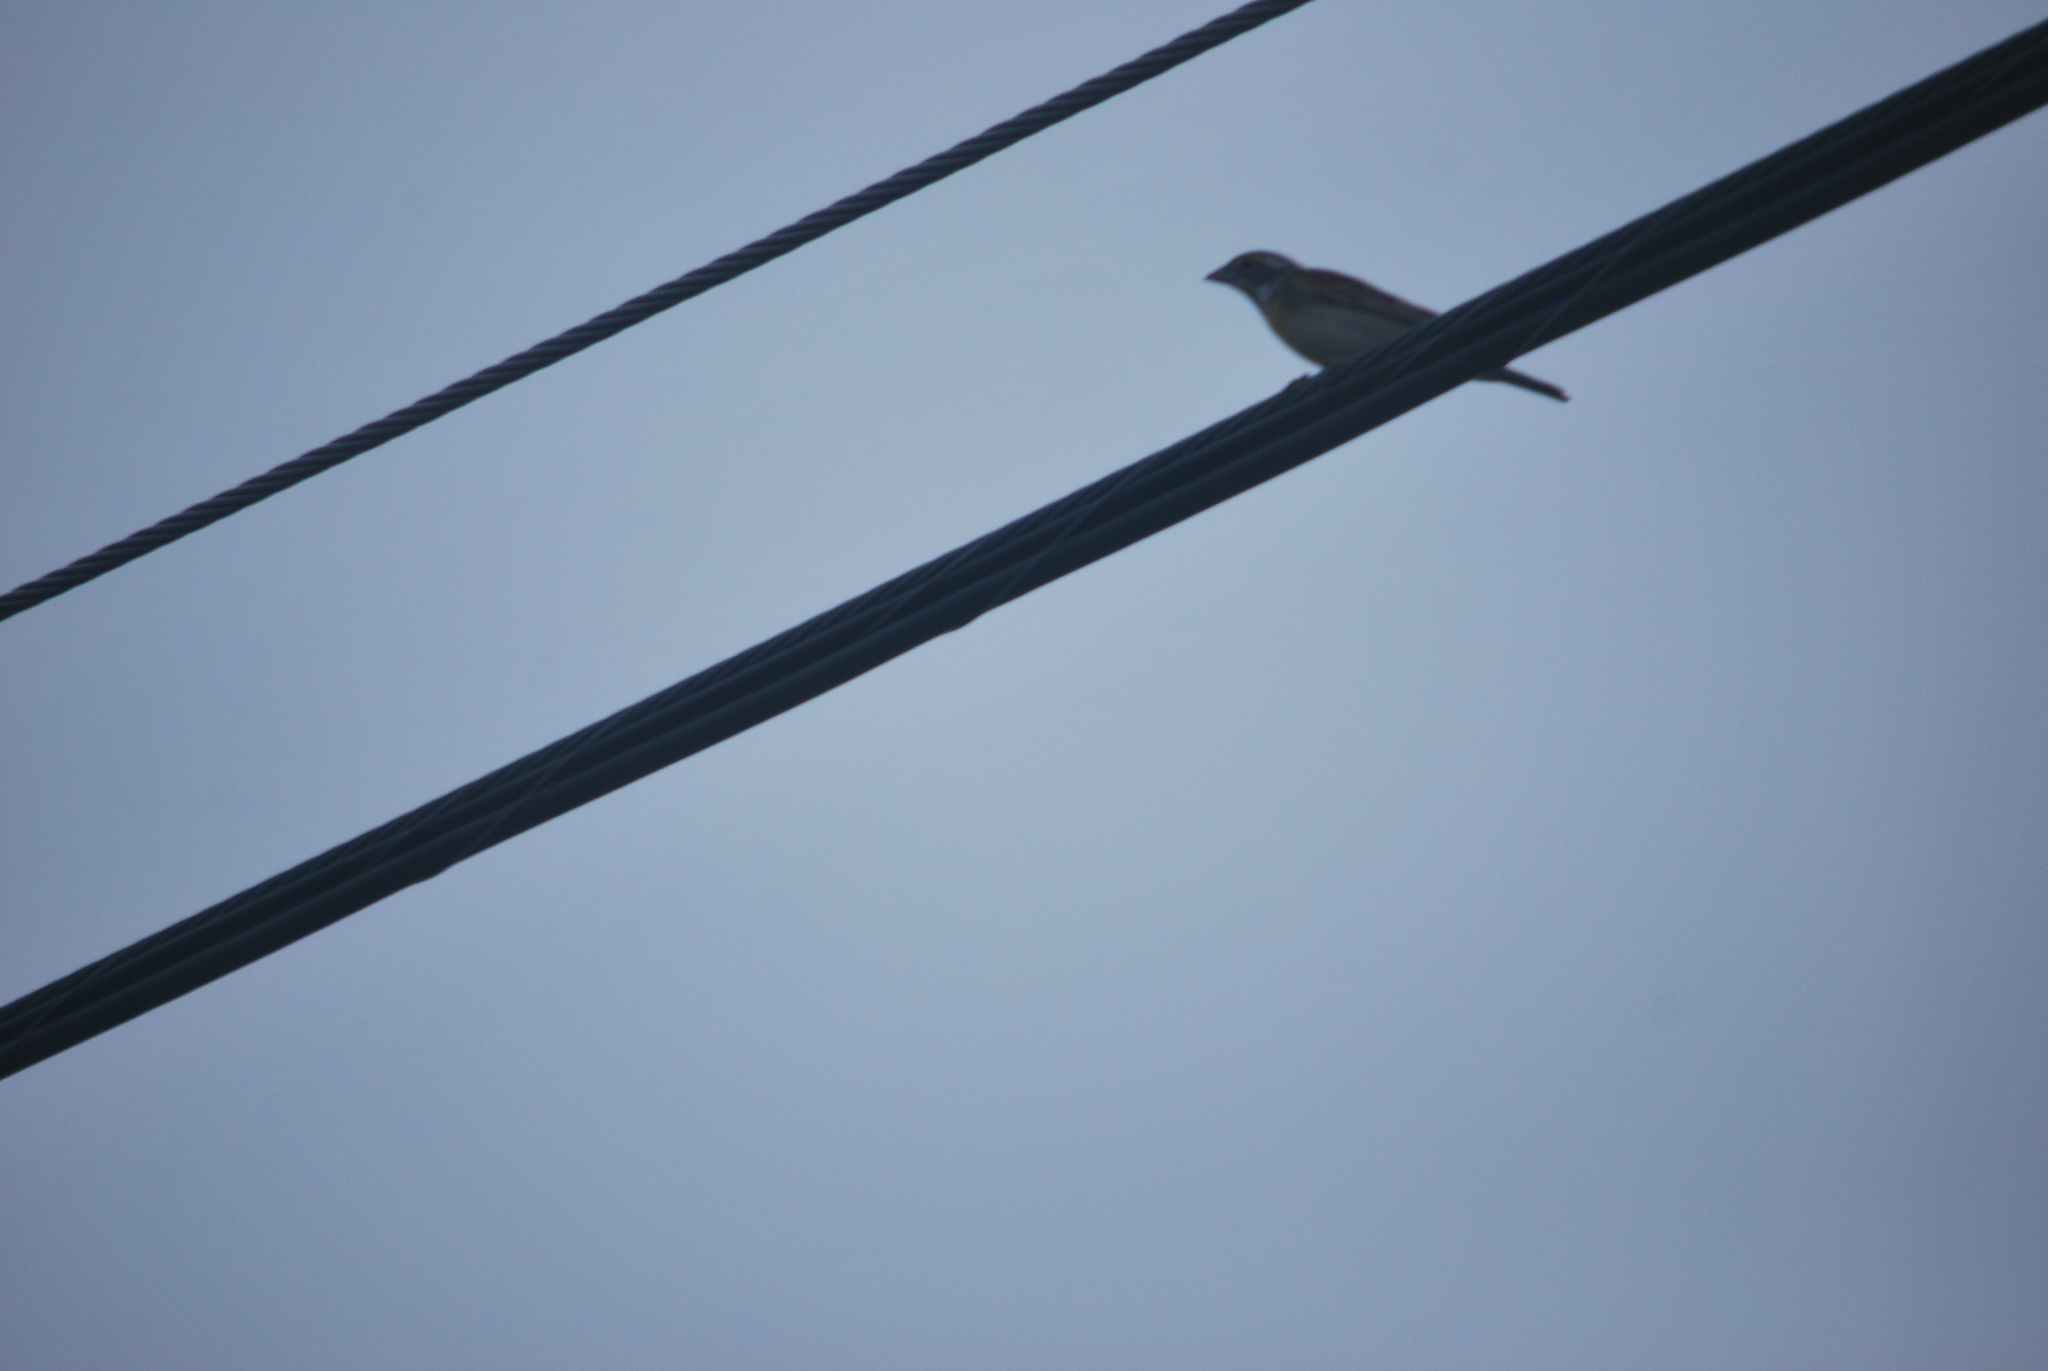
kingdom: Animalia
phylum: Chordata
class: Aves
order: Passeriformes
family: Cardinalidae
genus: Spiza
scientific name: Spiza americana
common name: Dickcissel
